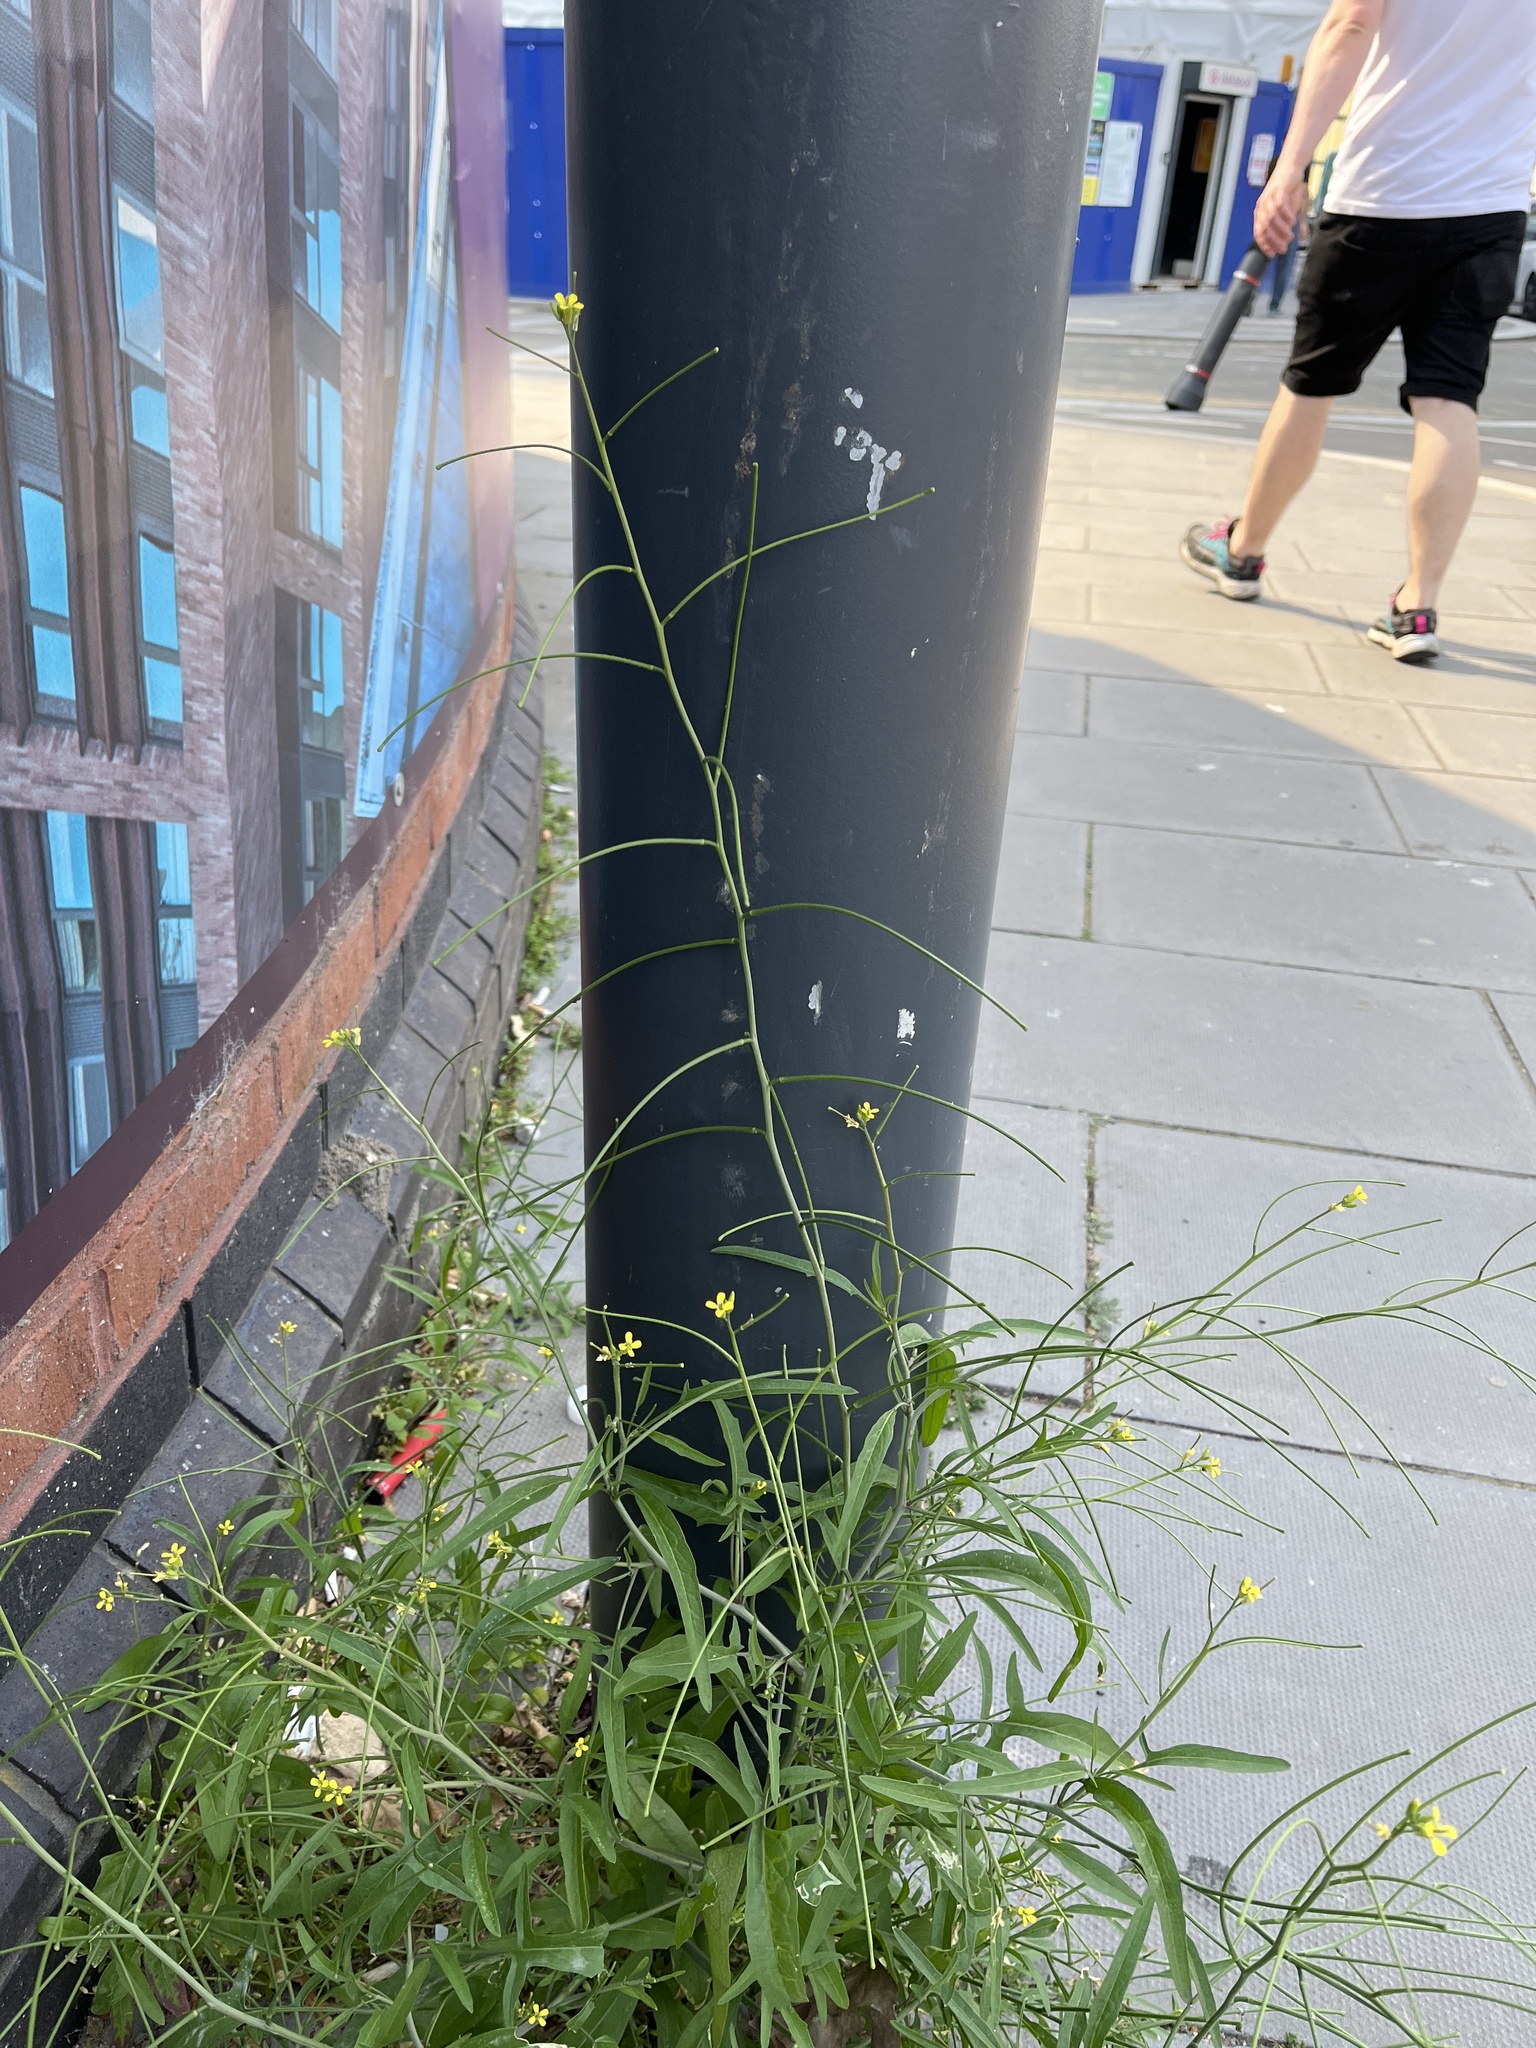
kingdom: Plantae
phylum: Tracheophyta
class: Magnoliopsida
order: Brassicales
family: Brassicaceae
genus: Sisymbrium
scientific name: Sisymbrium orientale
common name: Eastern rocket
